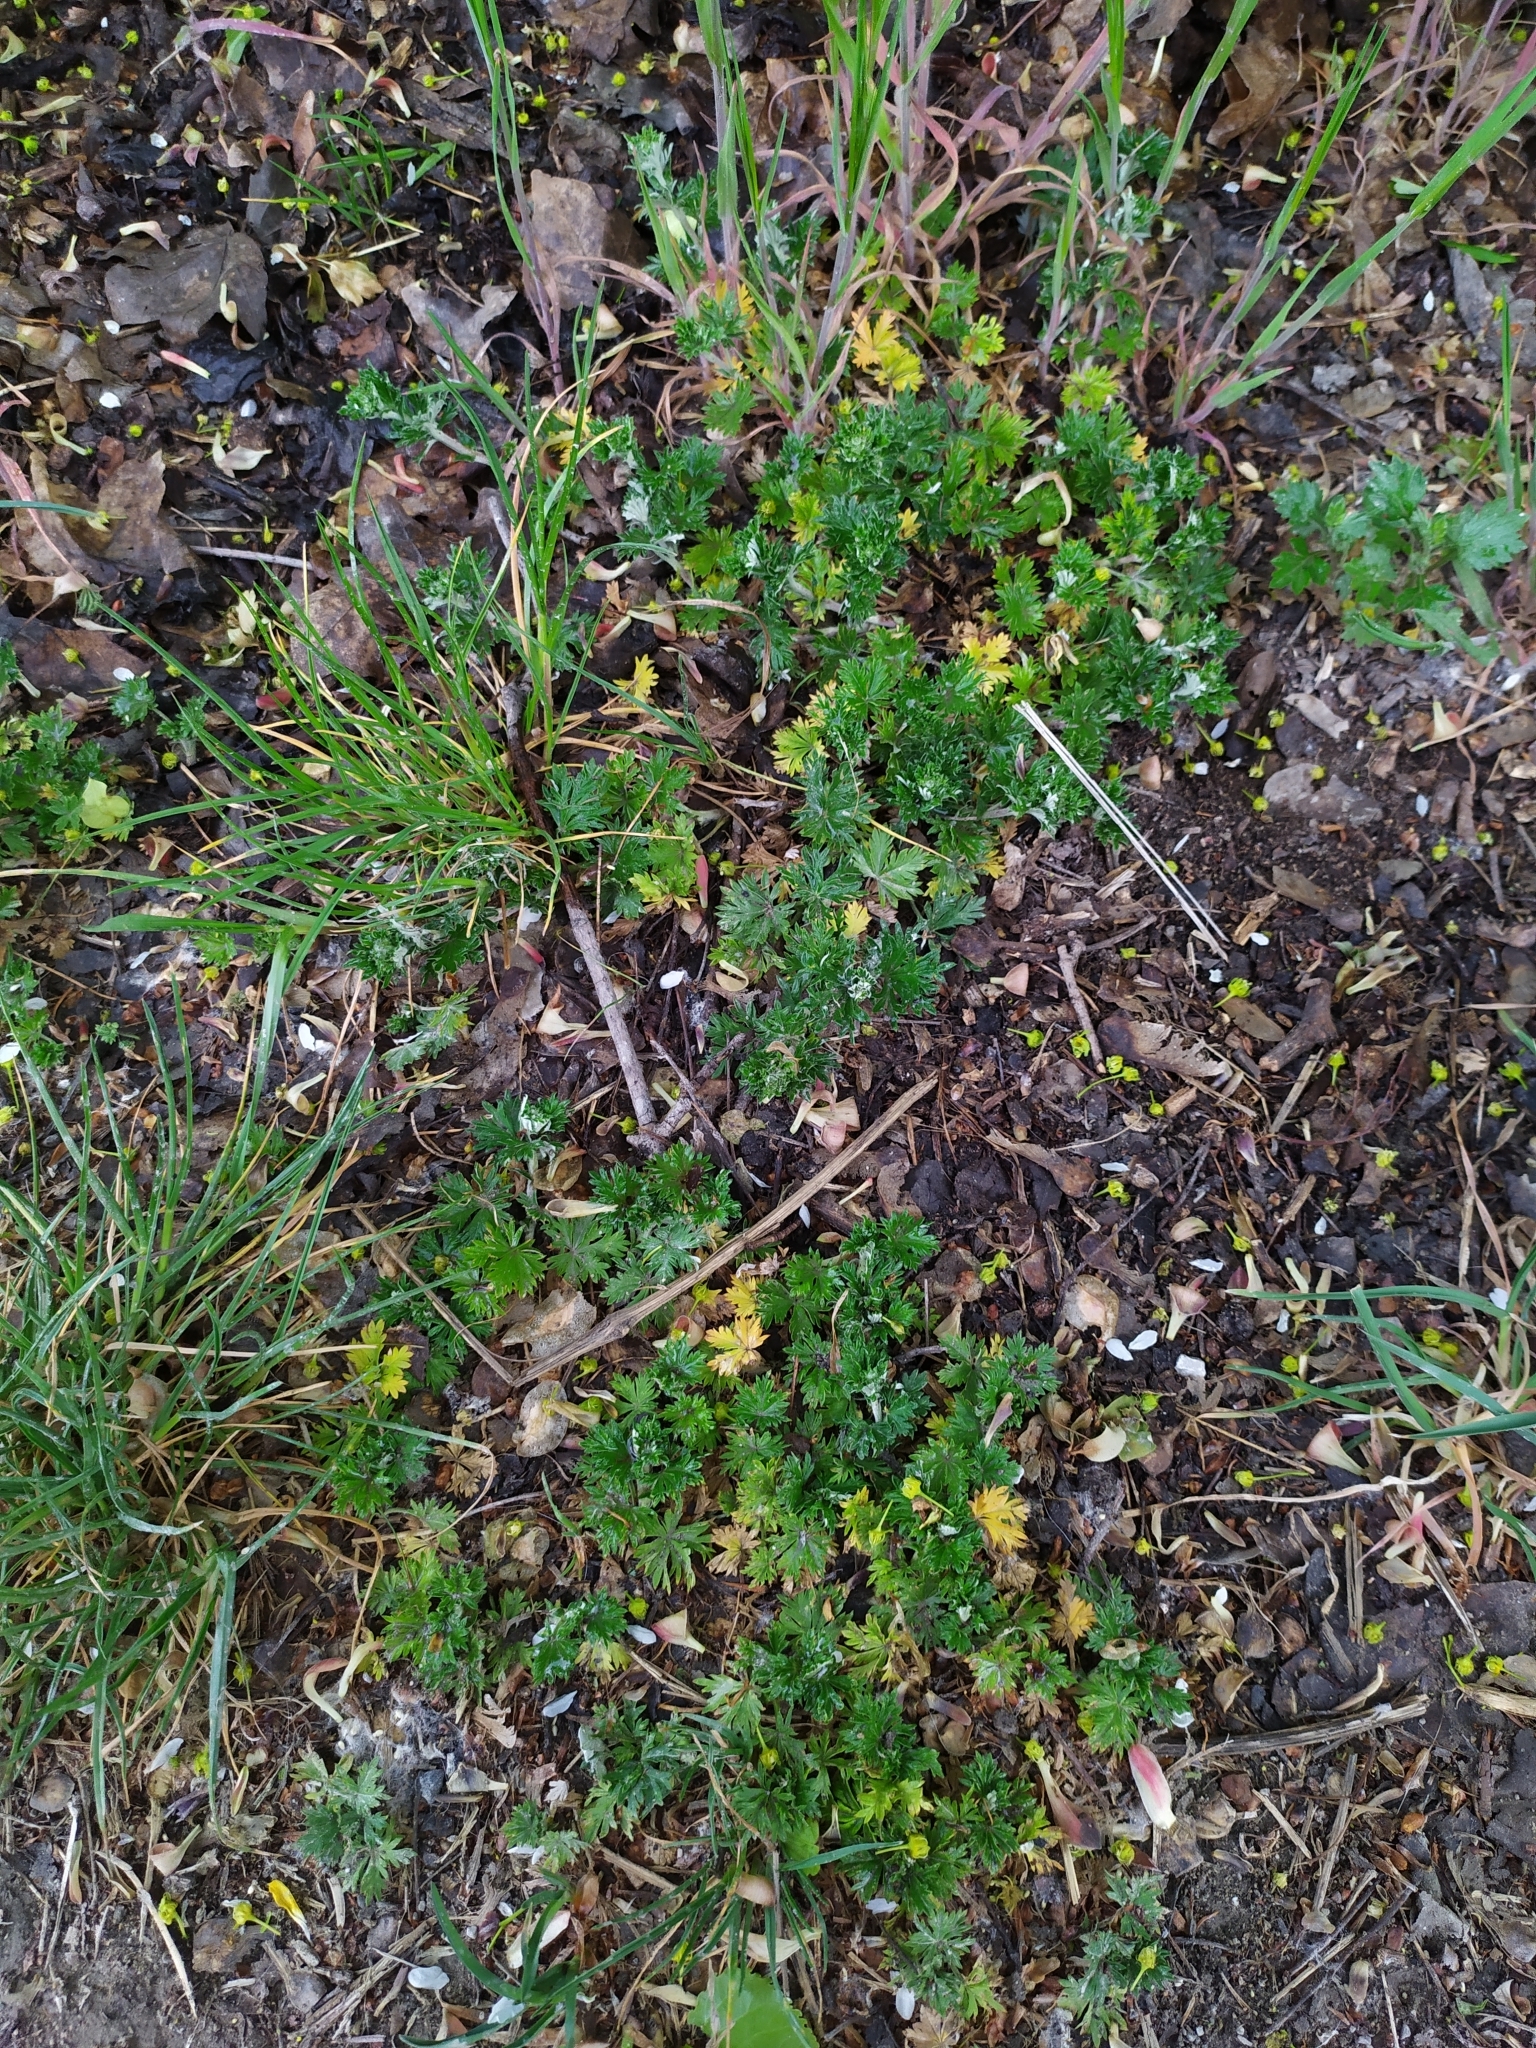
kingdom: Plantae
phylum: Tracheophyta
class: Magnoliopsida
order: Rosales
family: Rosaceae
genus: Potentilla
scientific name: Potentilla argentea
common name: Hoary cinquefoil
